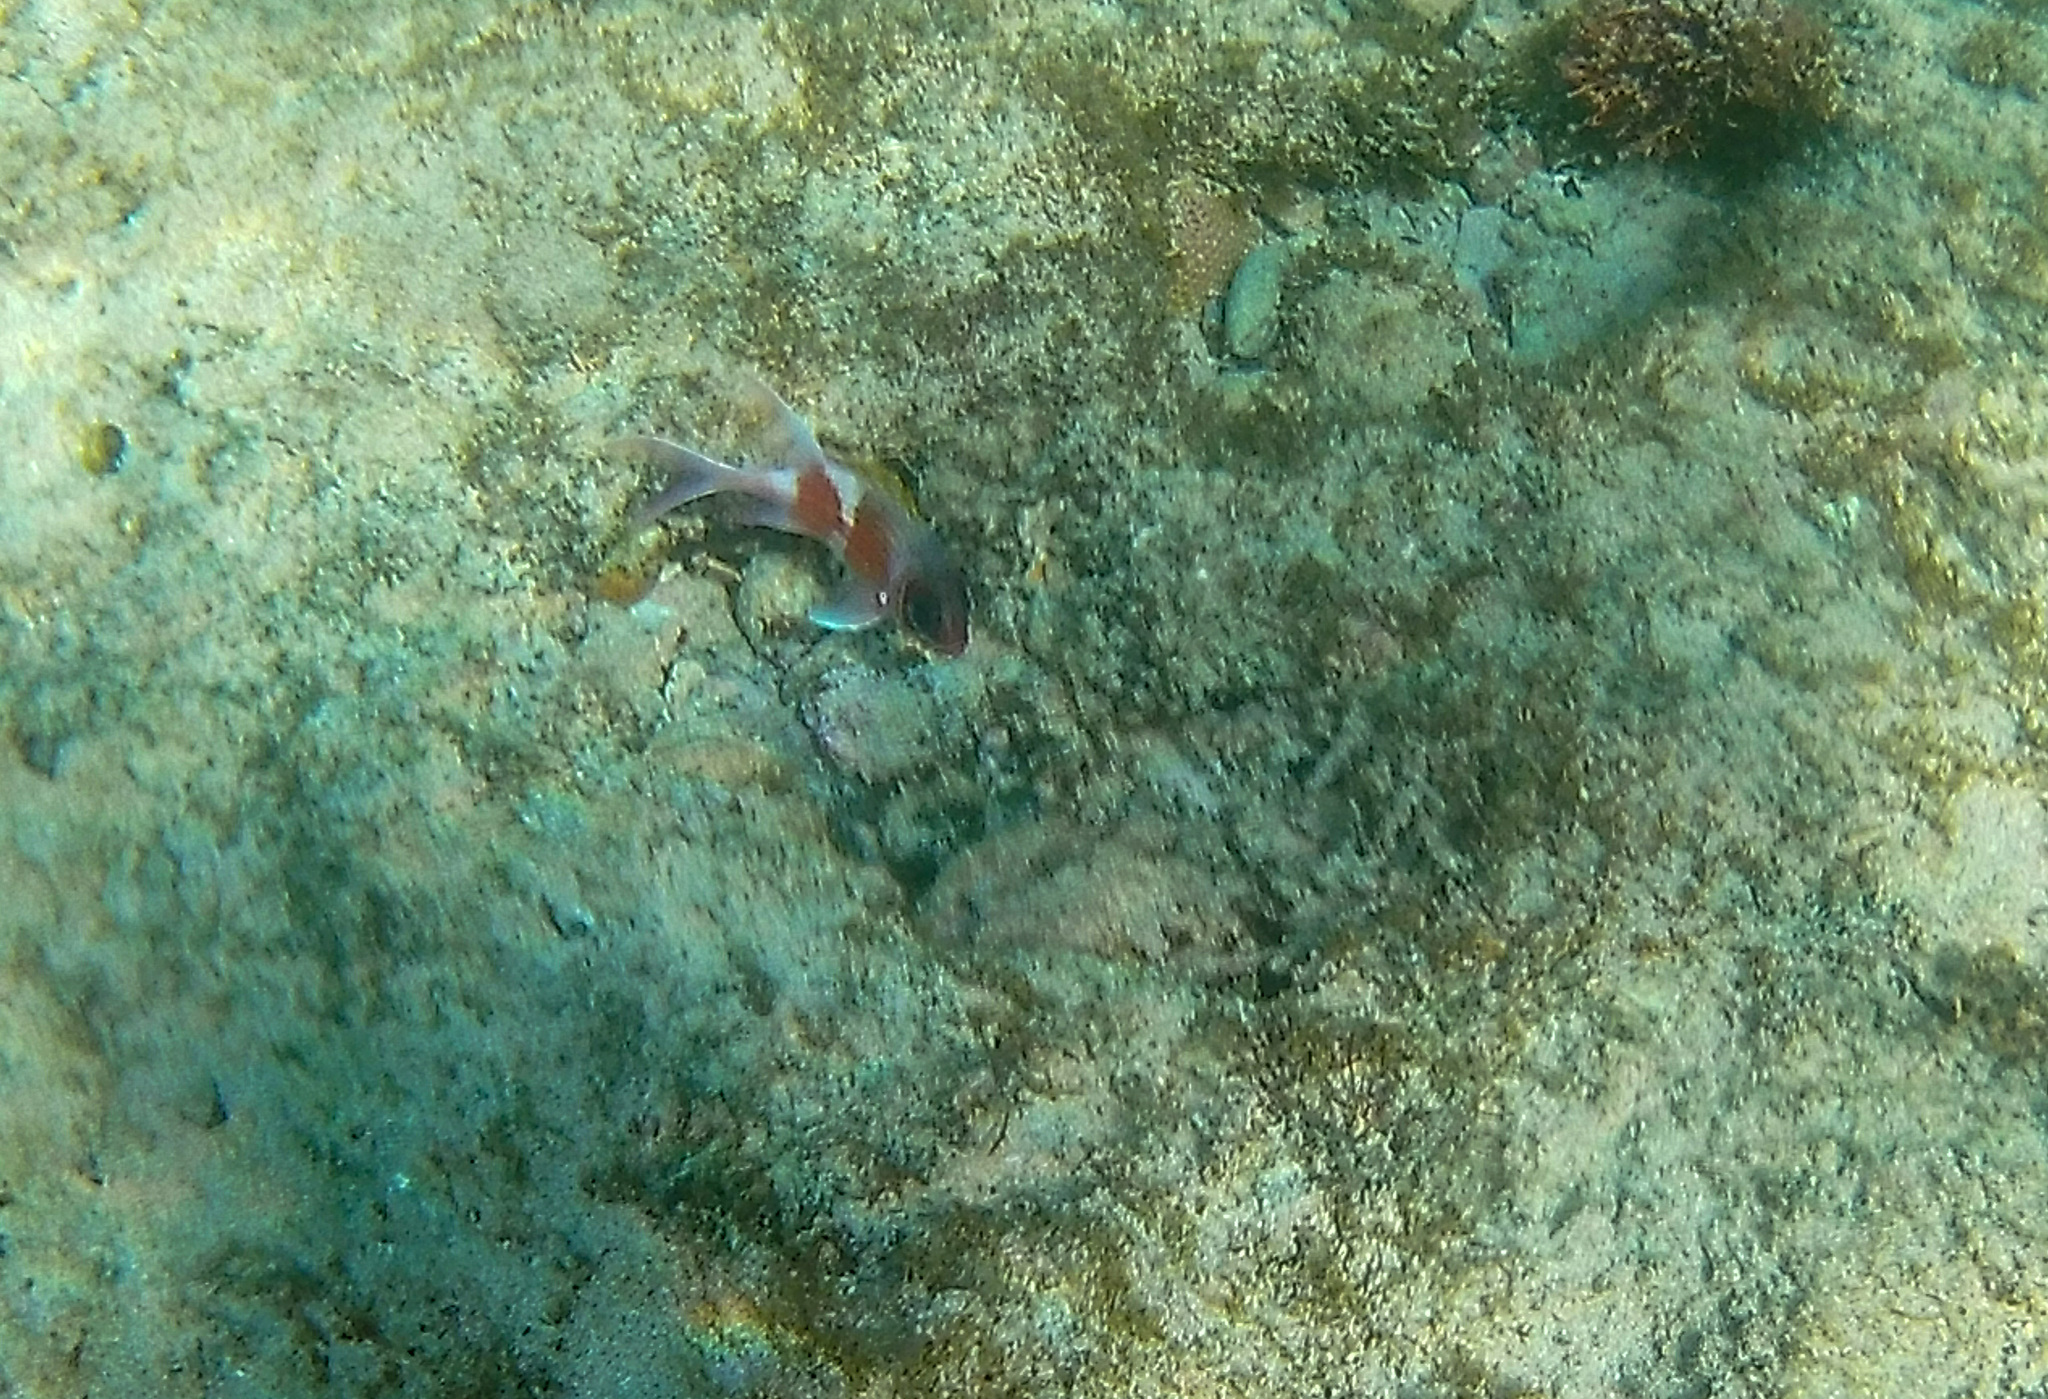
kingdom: Animalia
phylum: Chordata
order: Beryciformes
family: Holocentridae
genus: Holocentrus
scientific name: Holocentrus adscensionis
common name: Squirrelfish
